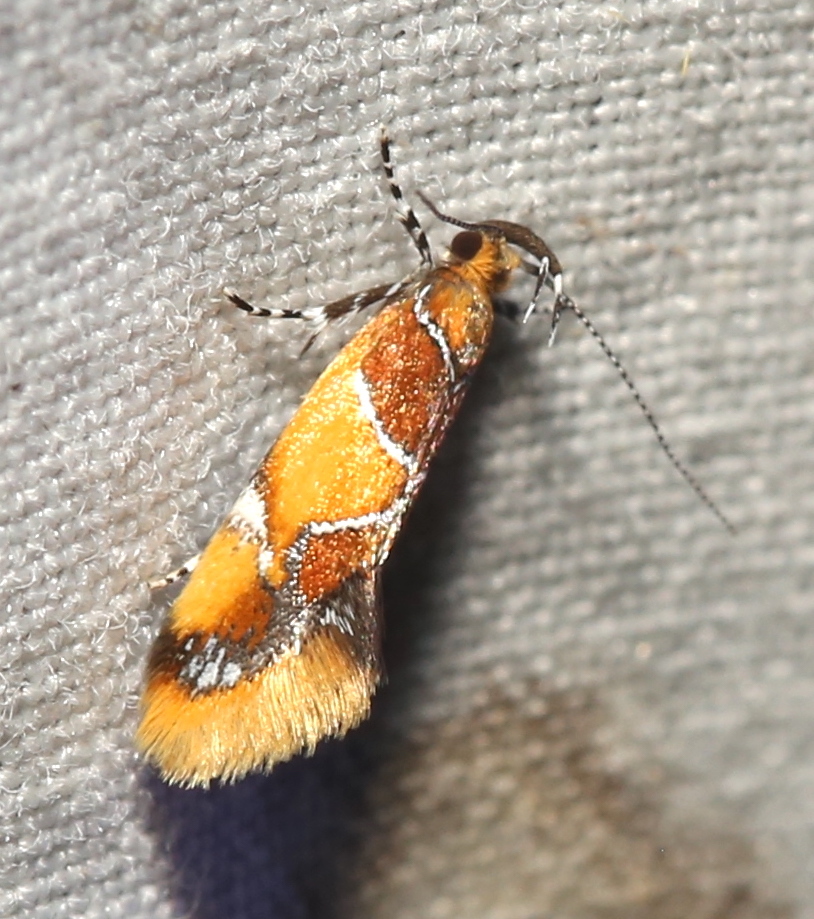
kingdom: Animalia
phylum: Arthropoda
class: Insecta
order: Lepidoptera
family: Oecophoridae
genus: Callima
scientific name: Callima argenticinctella
